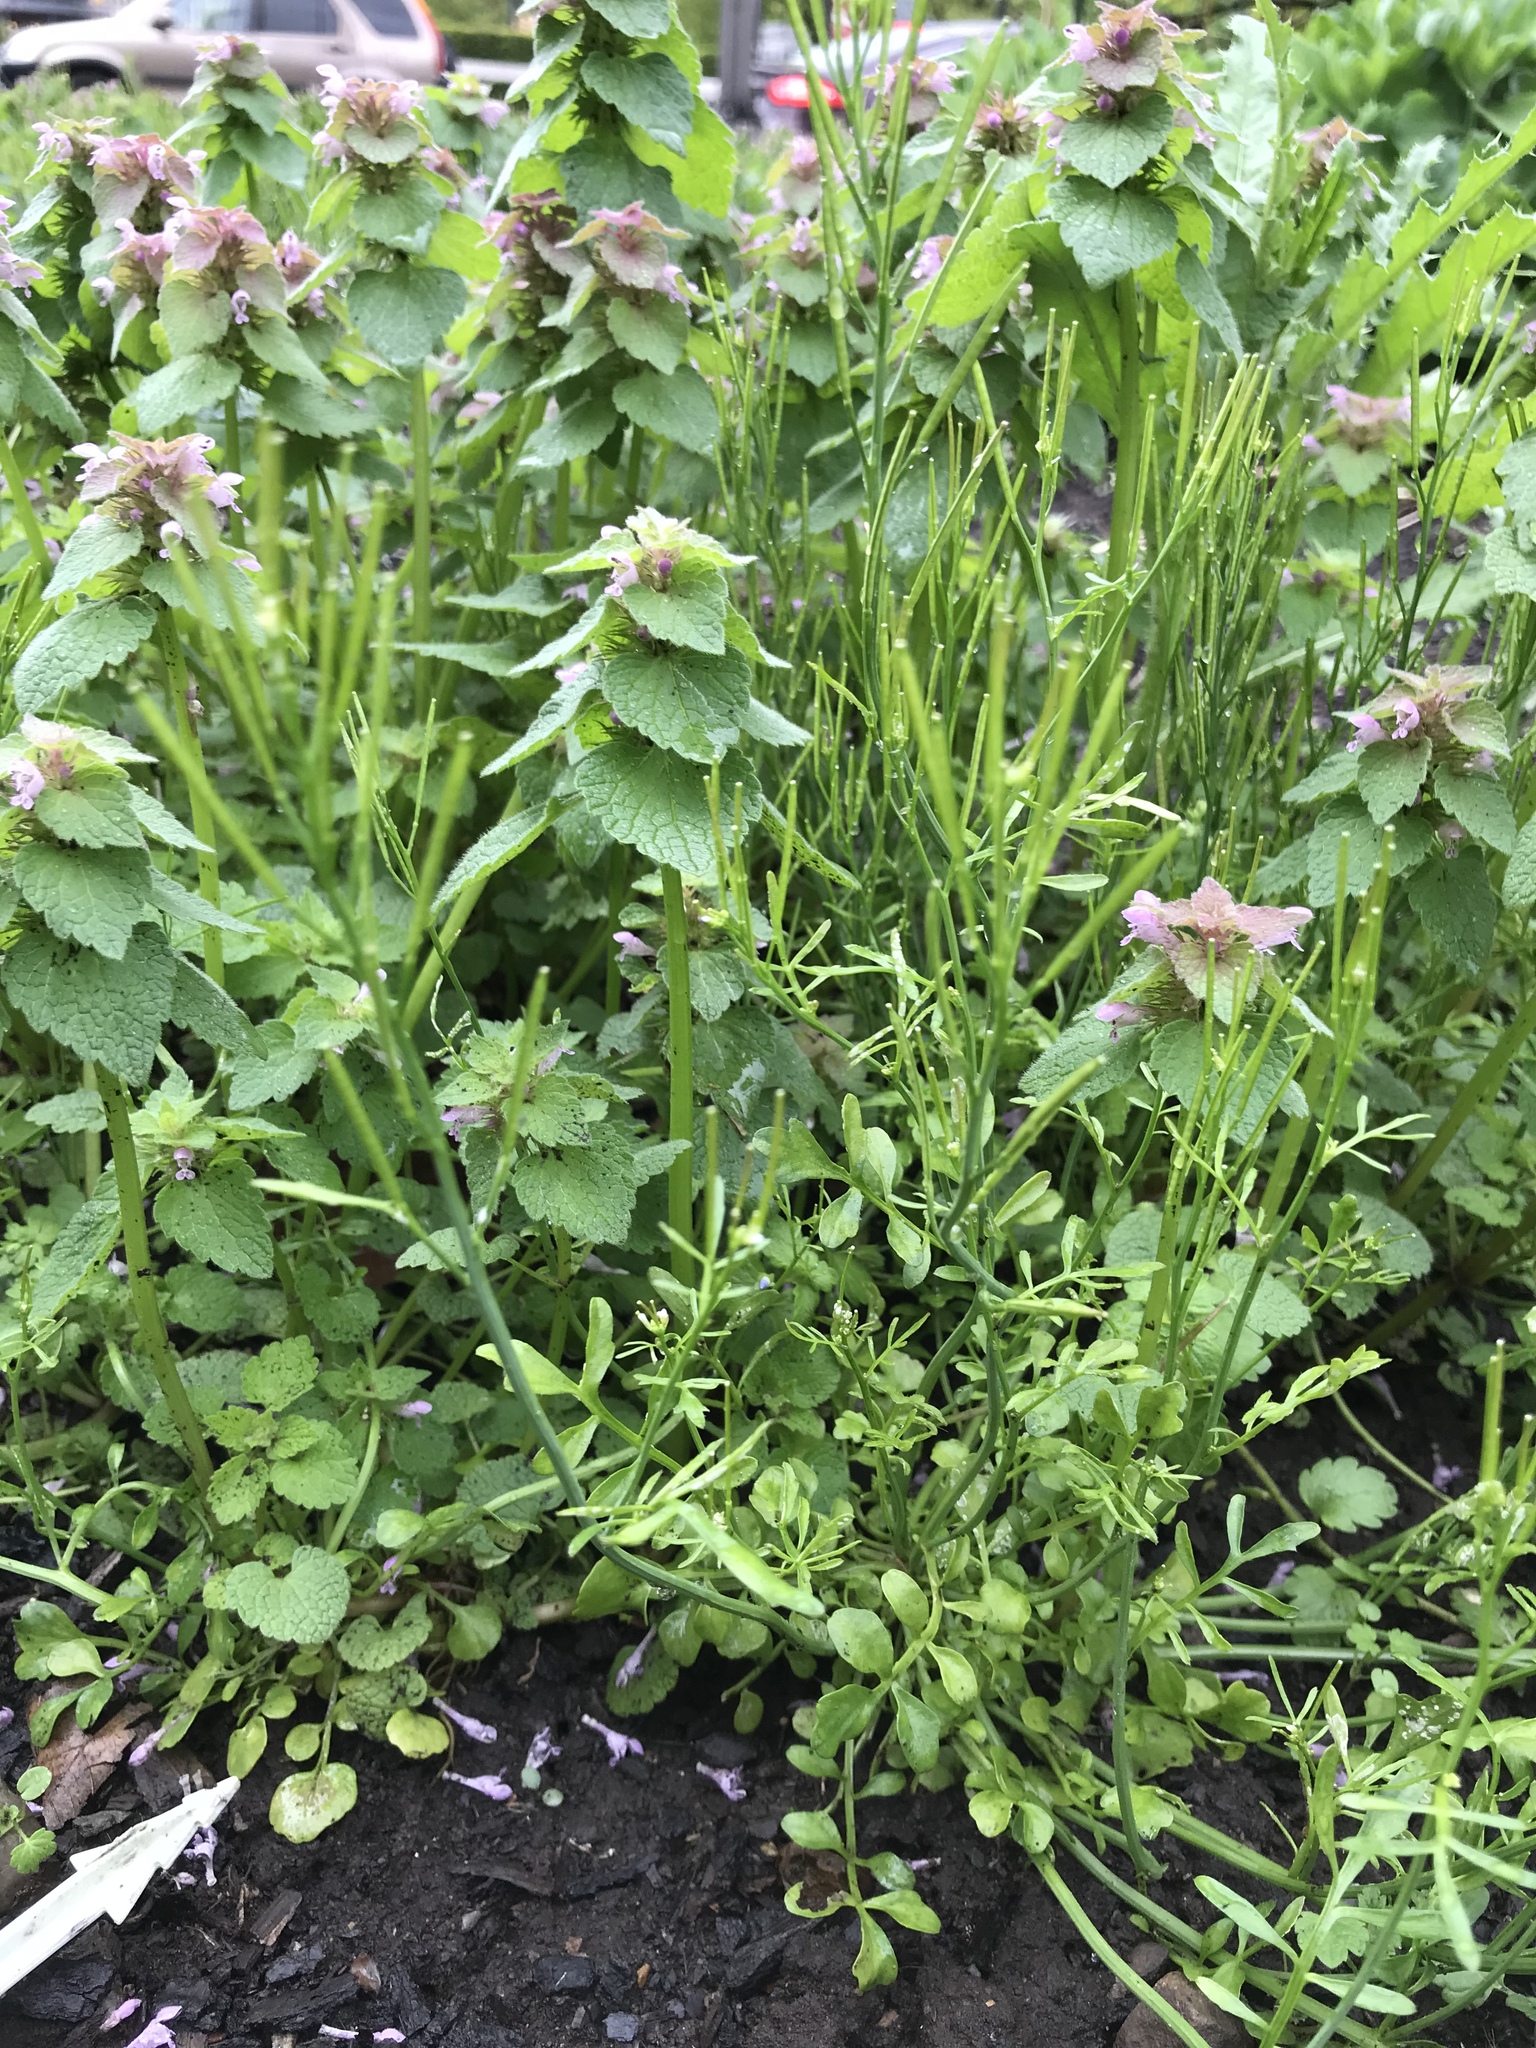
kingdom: Plantae
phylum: Tracheophyta
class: Magnoliopsida
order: Brassicales
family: Brassicaceae
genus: Cardamine
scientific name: Cardamine hirsuta
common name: Hairy bittercress
